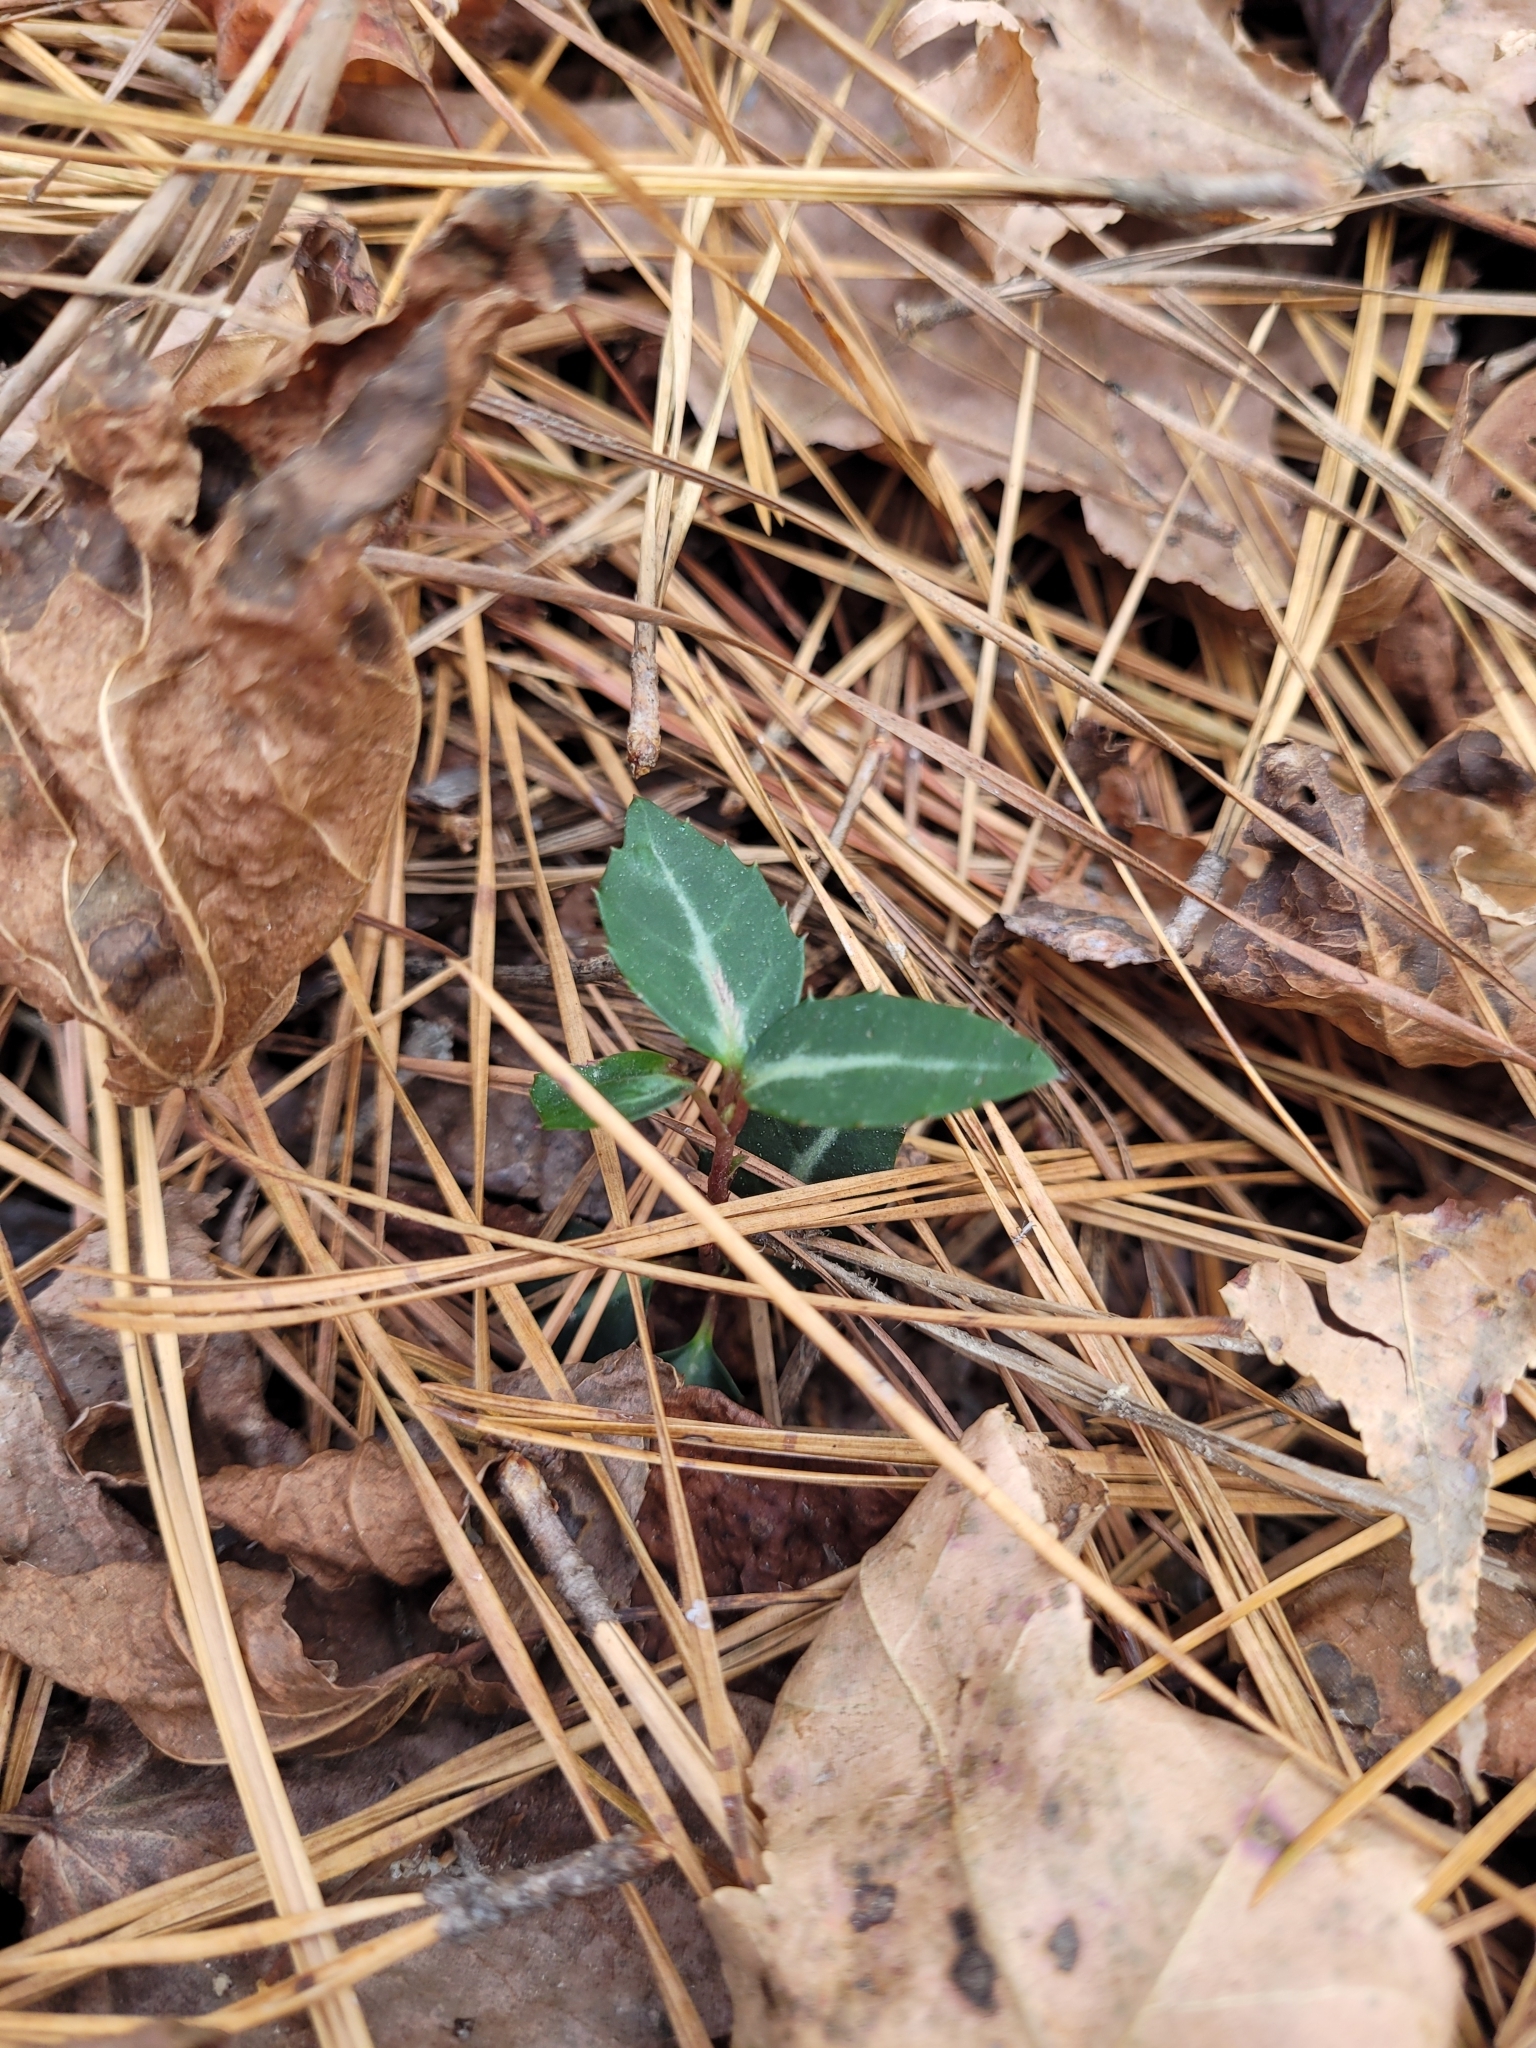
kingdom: Plantae
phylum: Tracheophyta
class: Magnoliopsida
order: Ericales
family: Ericaceae
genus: Chimaphila
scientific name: Chimaphila maculata
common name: Spotted pipsissewa
